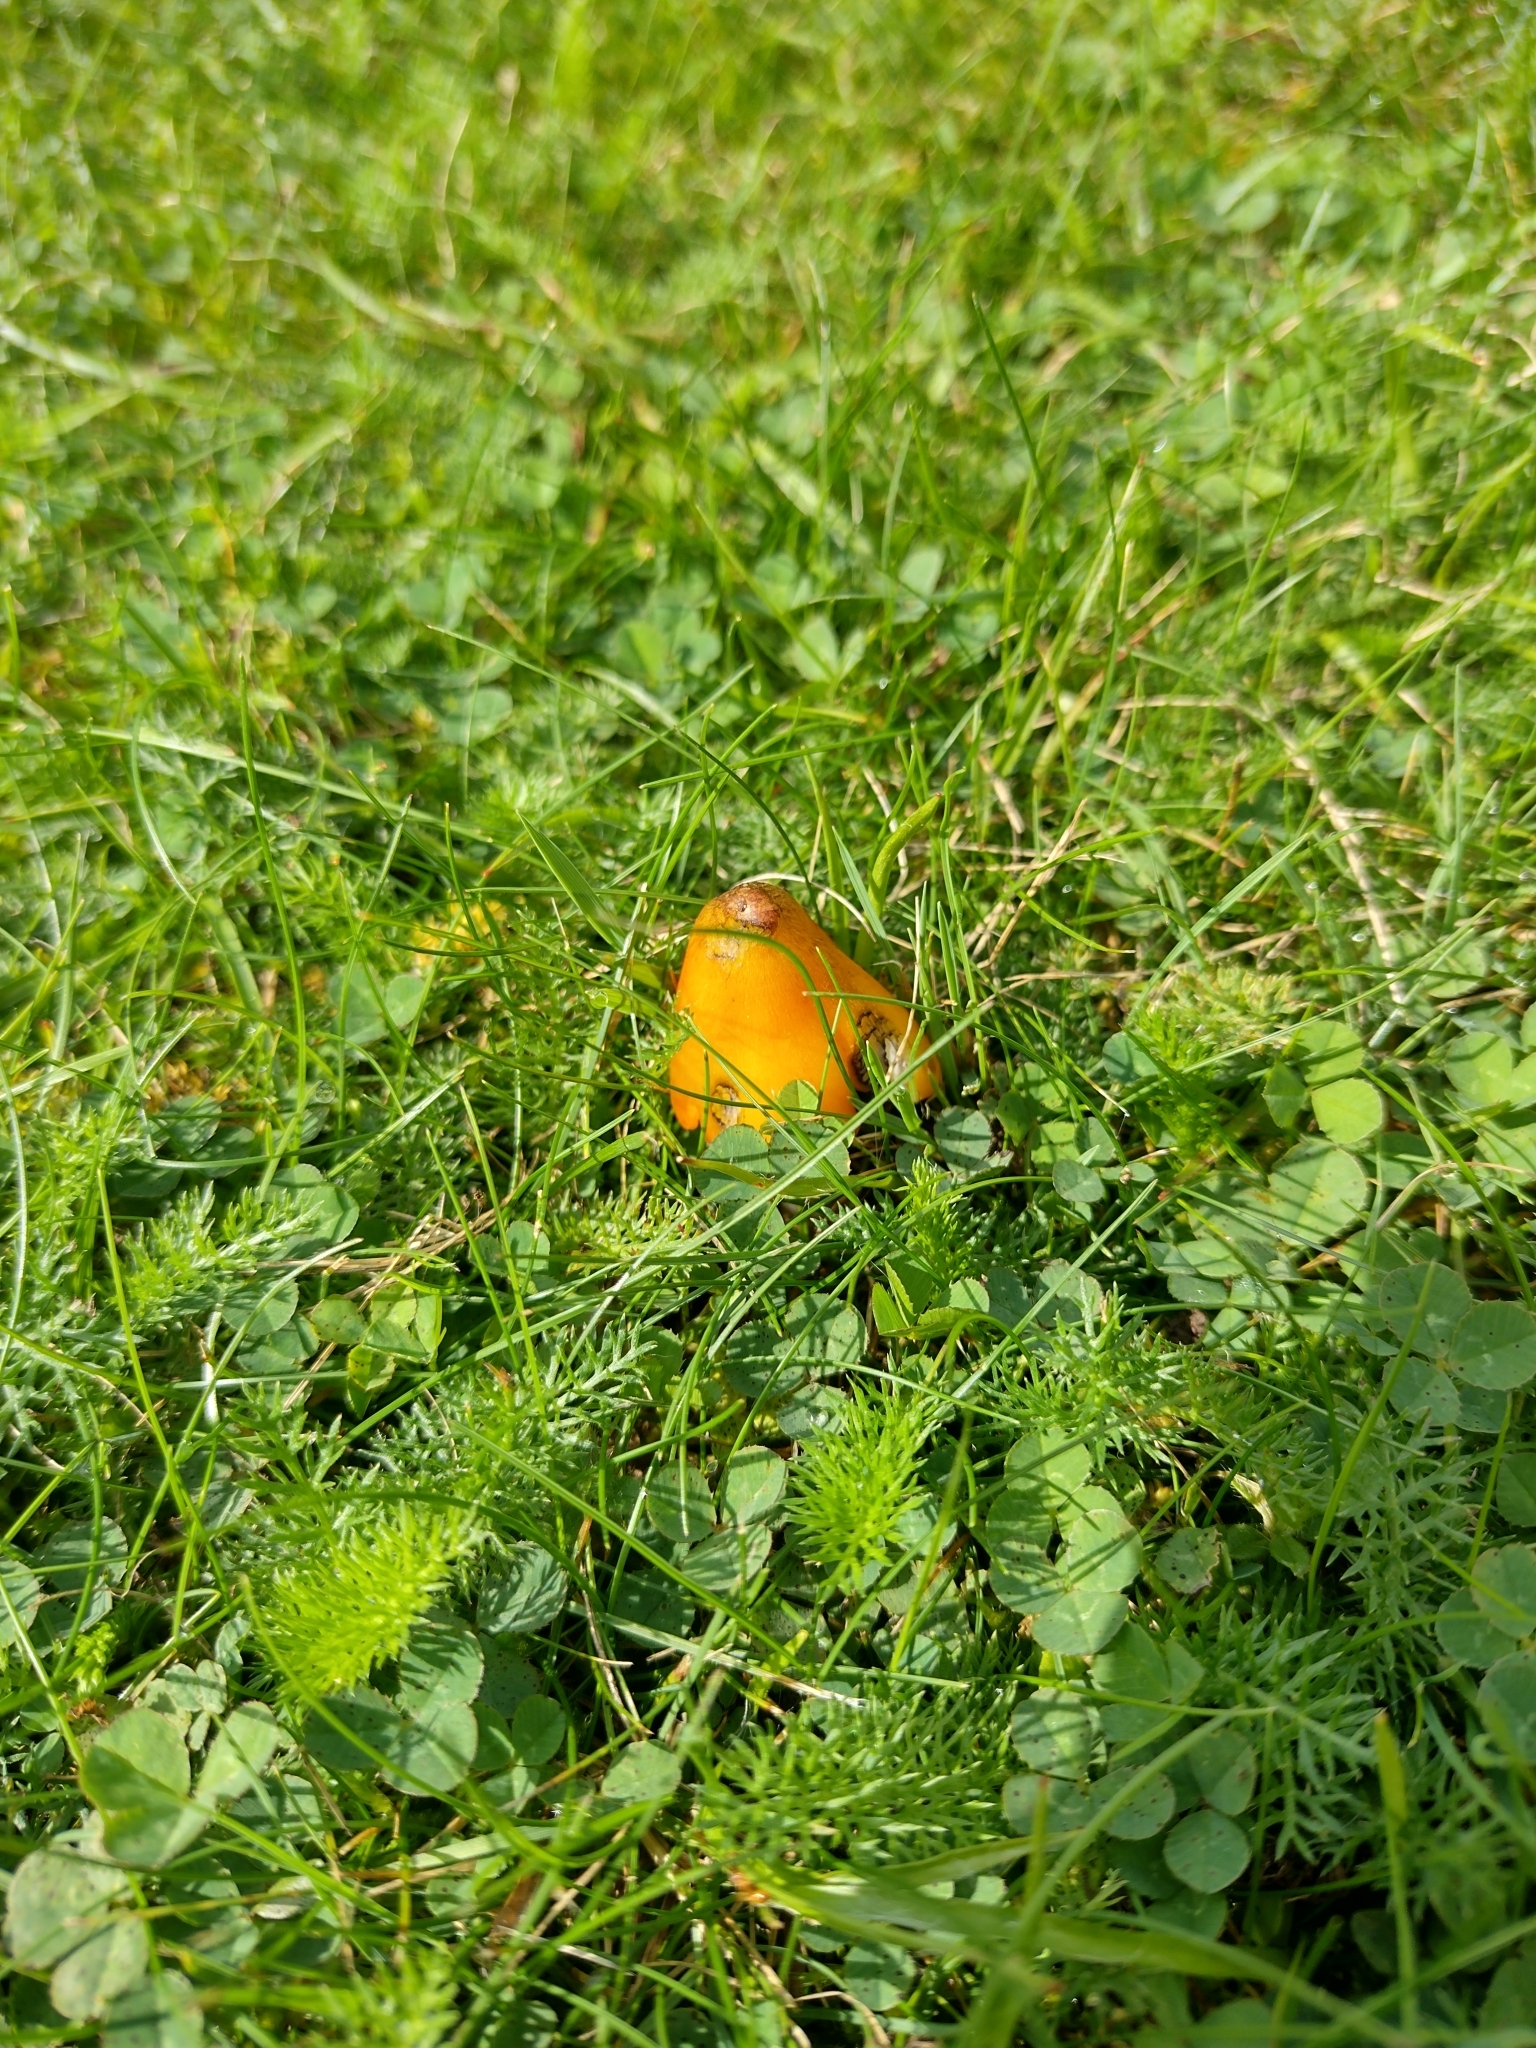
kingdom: Fungi
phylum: Basidiomycota
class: Agaricomycetes
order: Agaricales
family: Hygrophoraceae
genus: Hygrocybe
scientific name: Hygrocybe conica
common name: Blackening wax-cap
